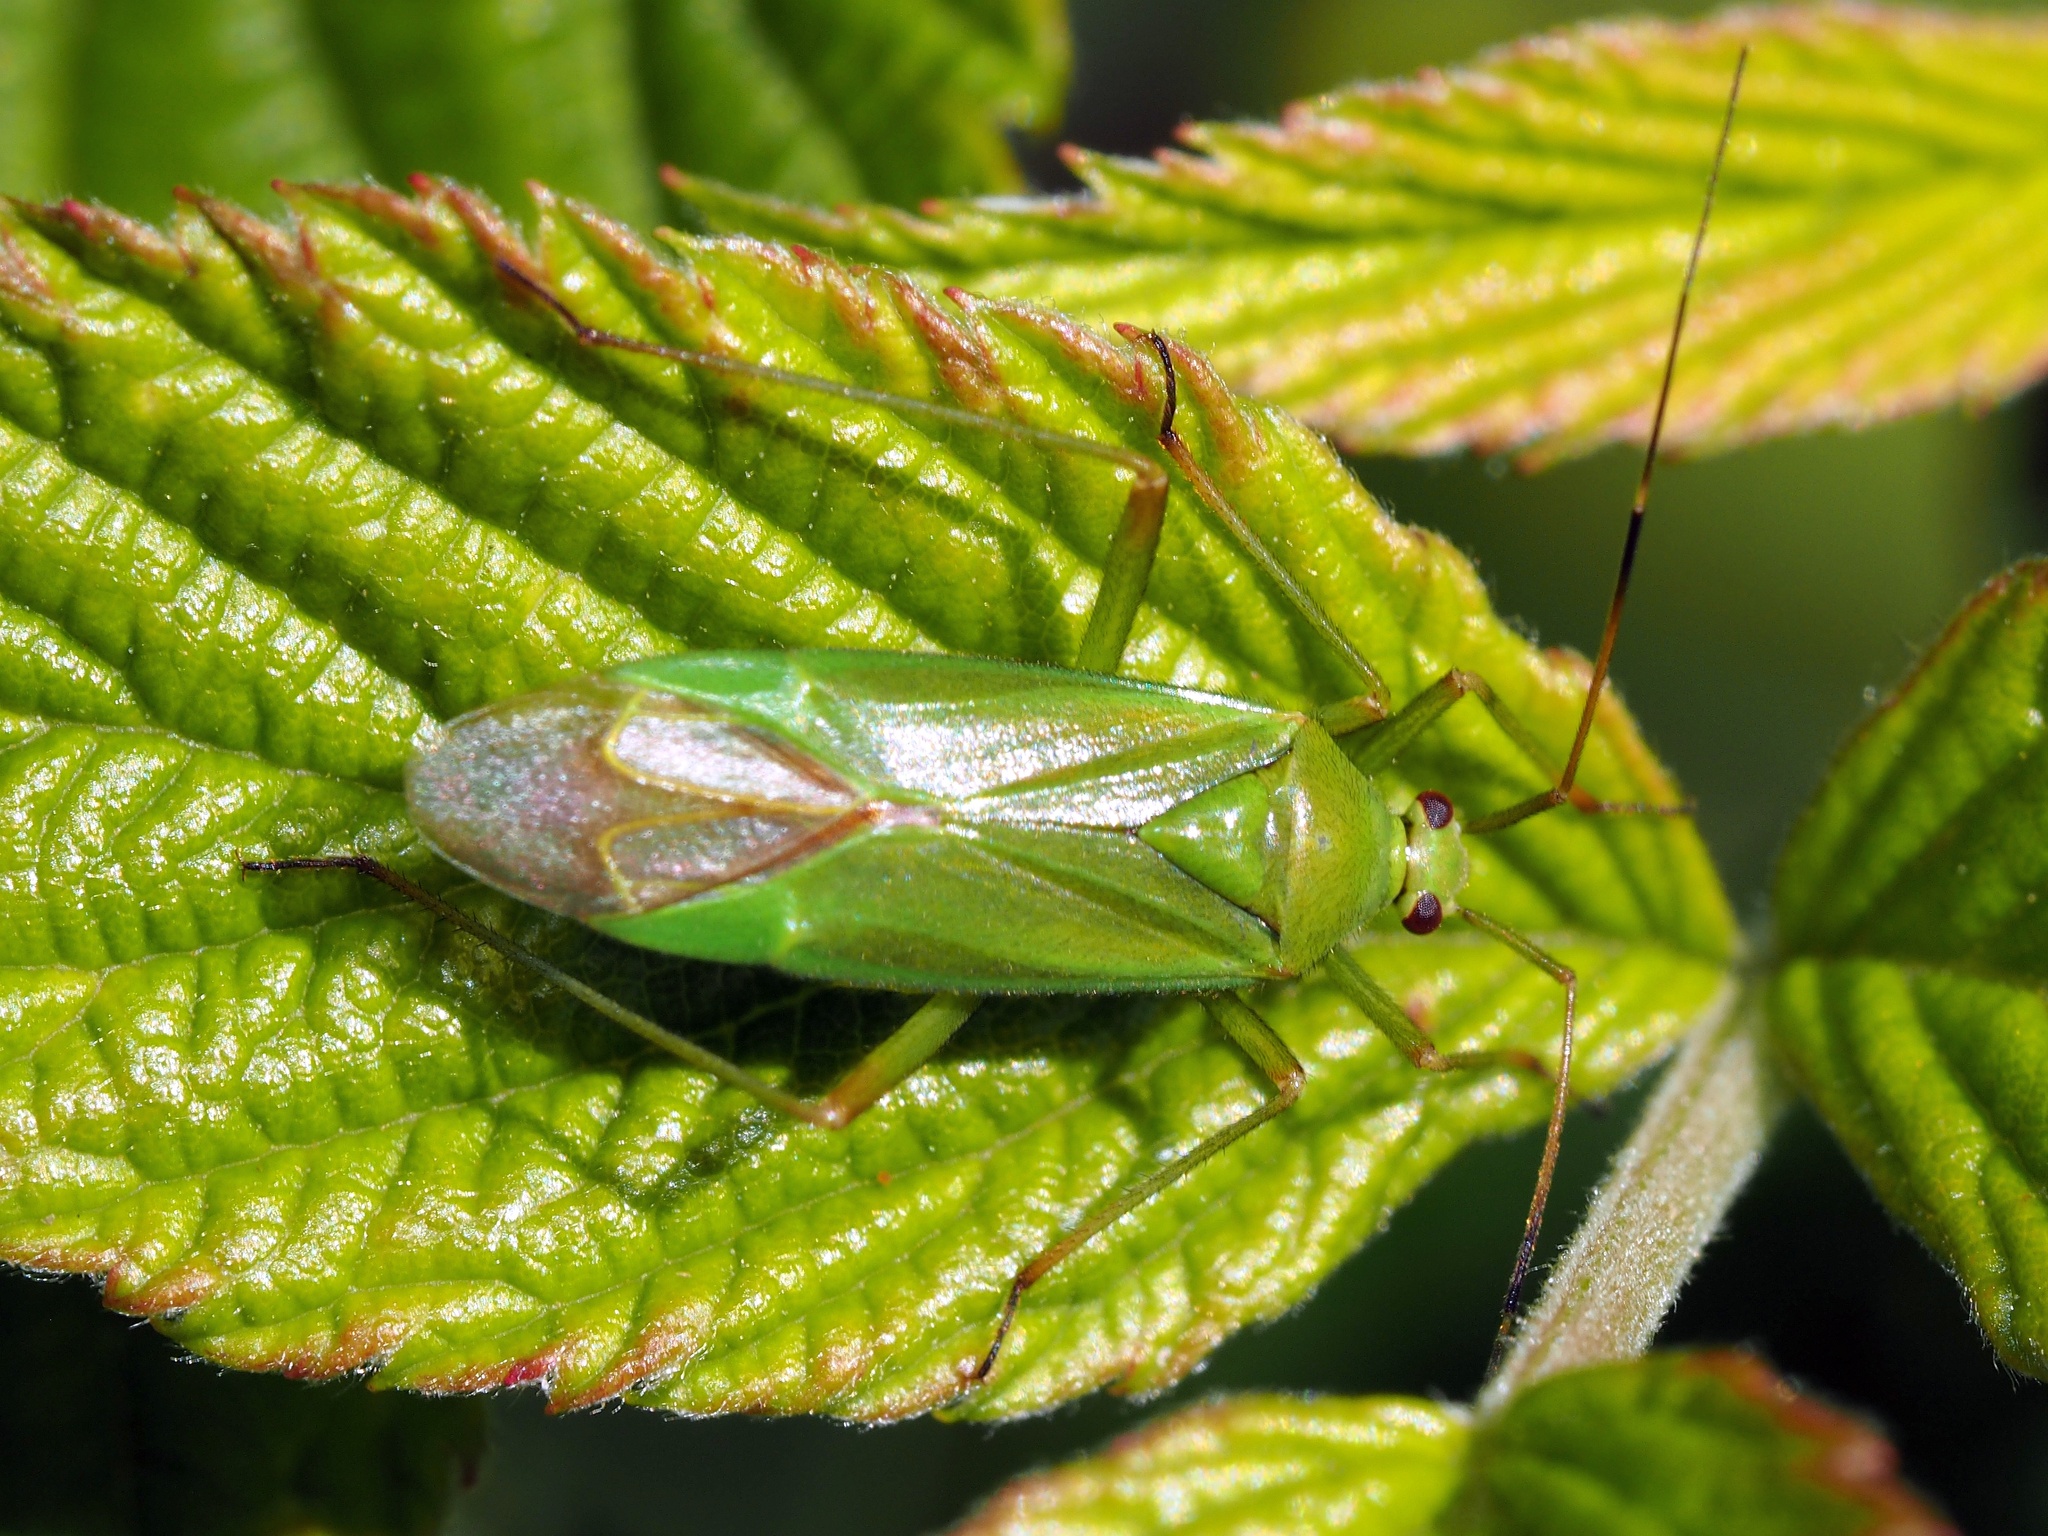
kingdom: Animalia
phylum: Arthropoda
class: Insecta
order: Hemiptera
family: Miridae
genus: Calocoris
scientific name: Calocoris alpestris
